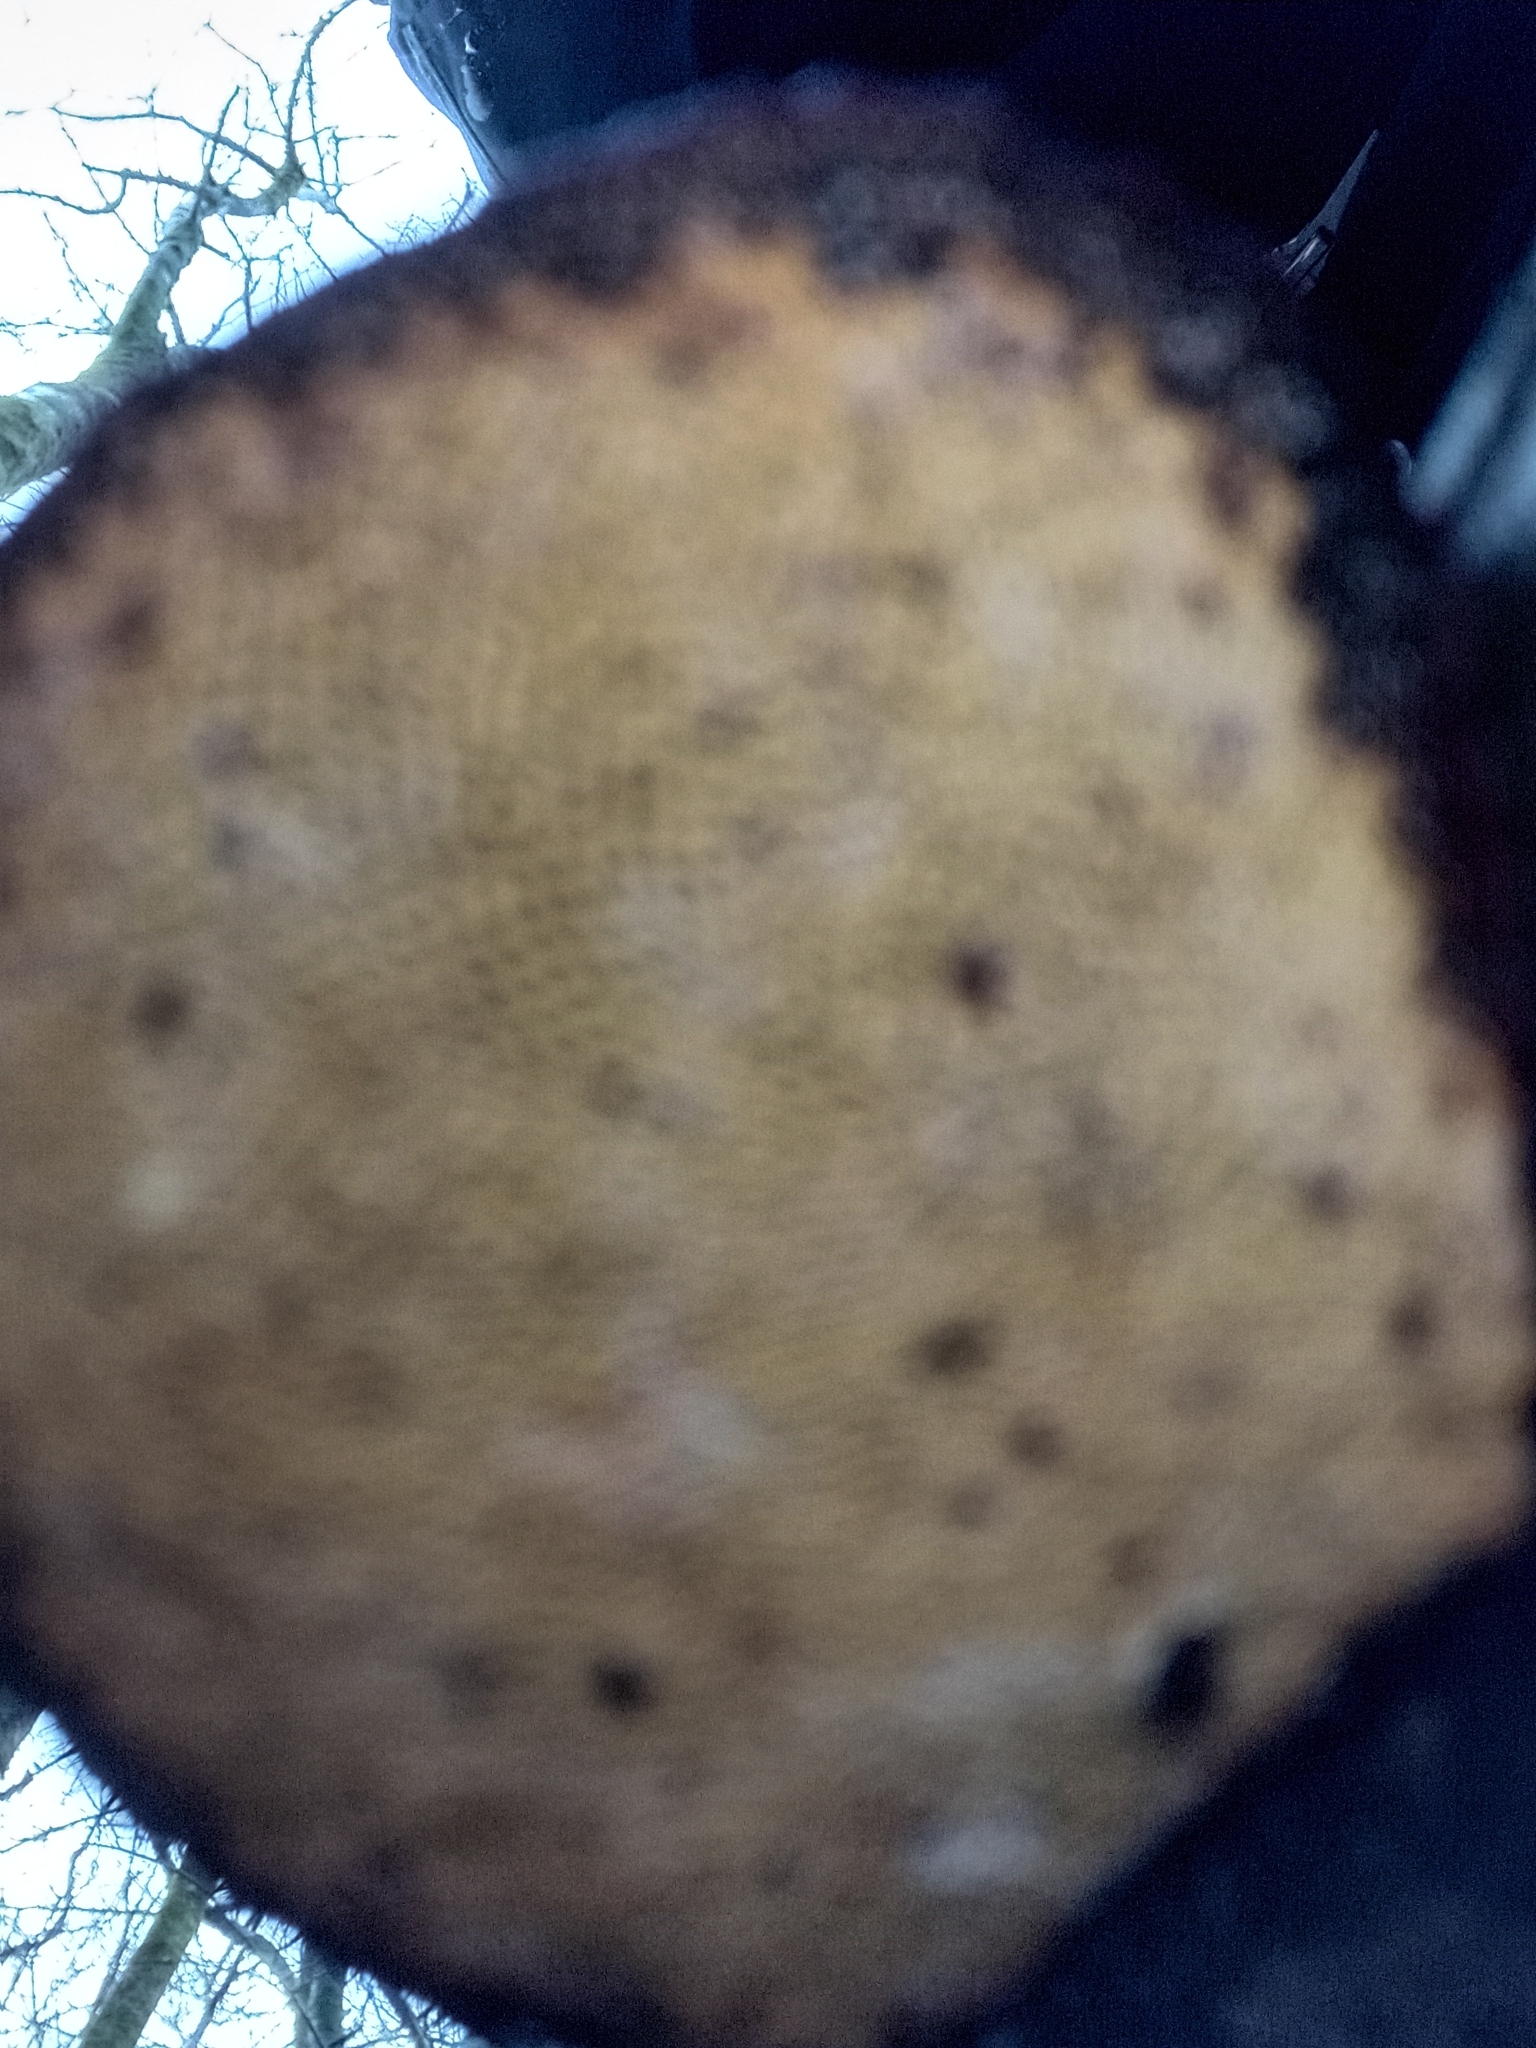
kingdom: Fungi
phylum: Basidiomycota
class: Agaricomycetes
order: Agaricales
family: Fistulinaceae
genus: Fistulina
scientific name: Fistulina hepatica
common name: Beef-steak fungus
